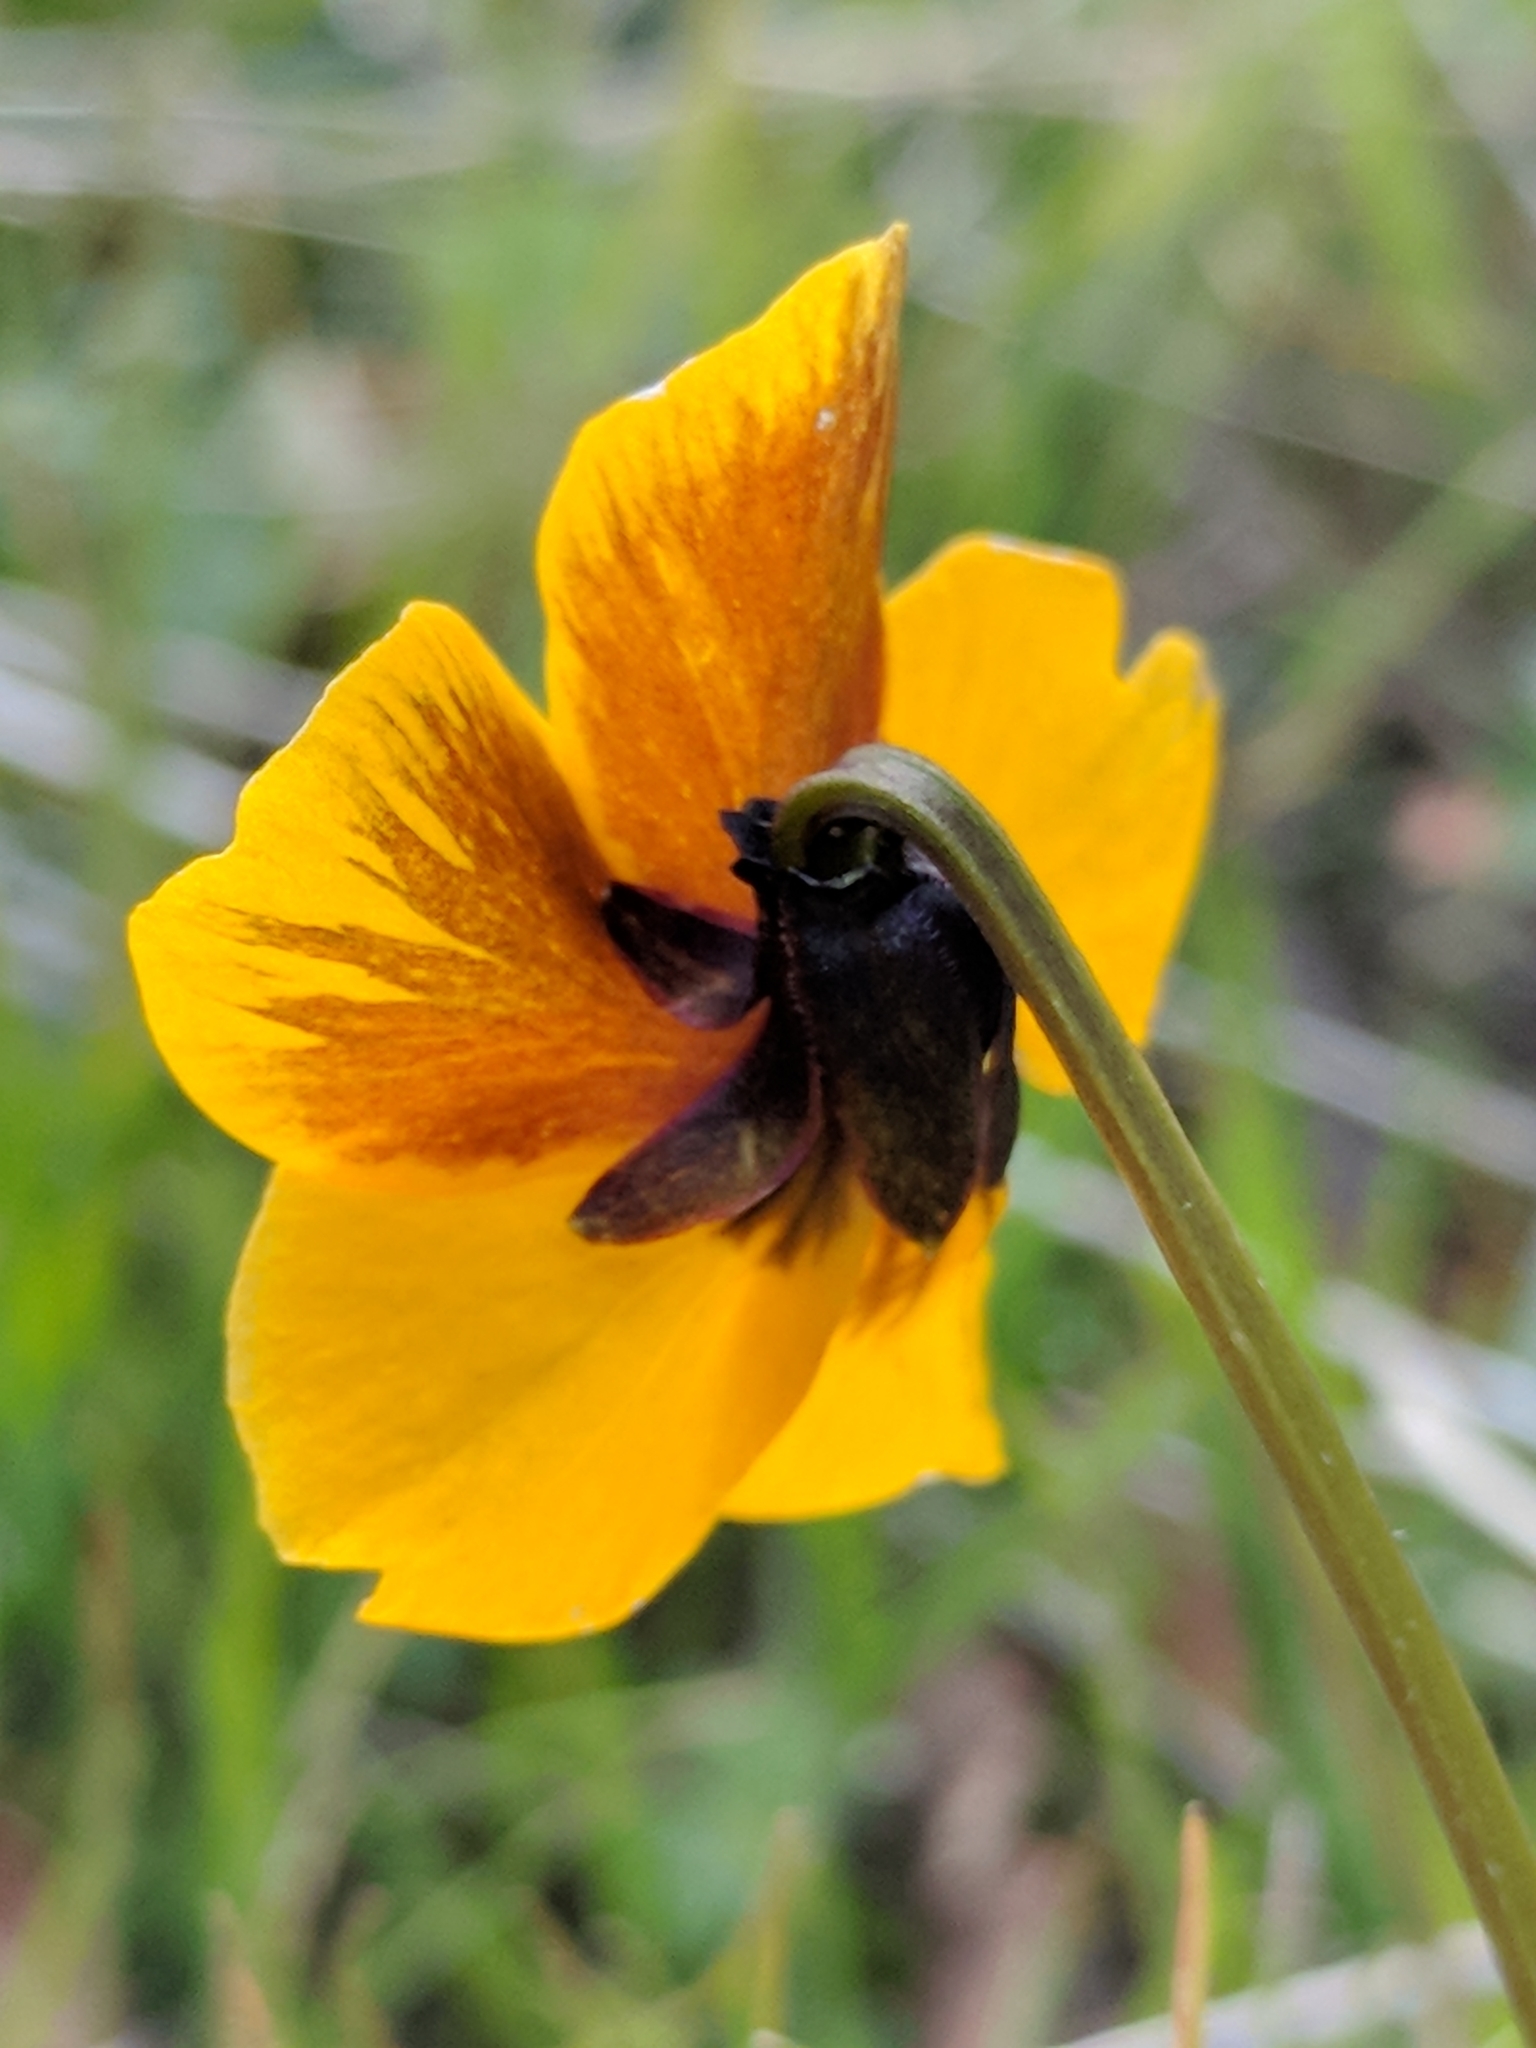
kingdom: Plantae
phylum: Tracheophyta
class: Magnoliopsida
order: Malpighiales
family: Violaceae
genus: Viola
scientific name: Viola pedunculata
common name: California golden violet
